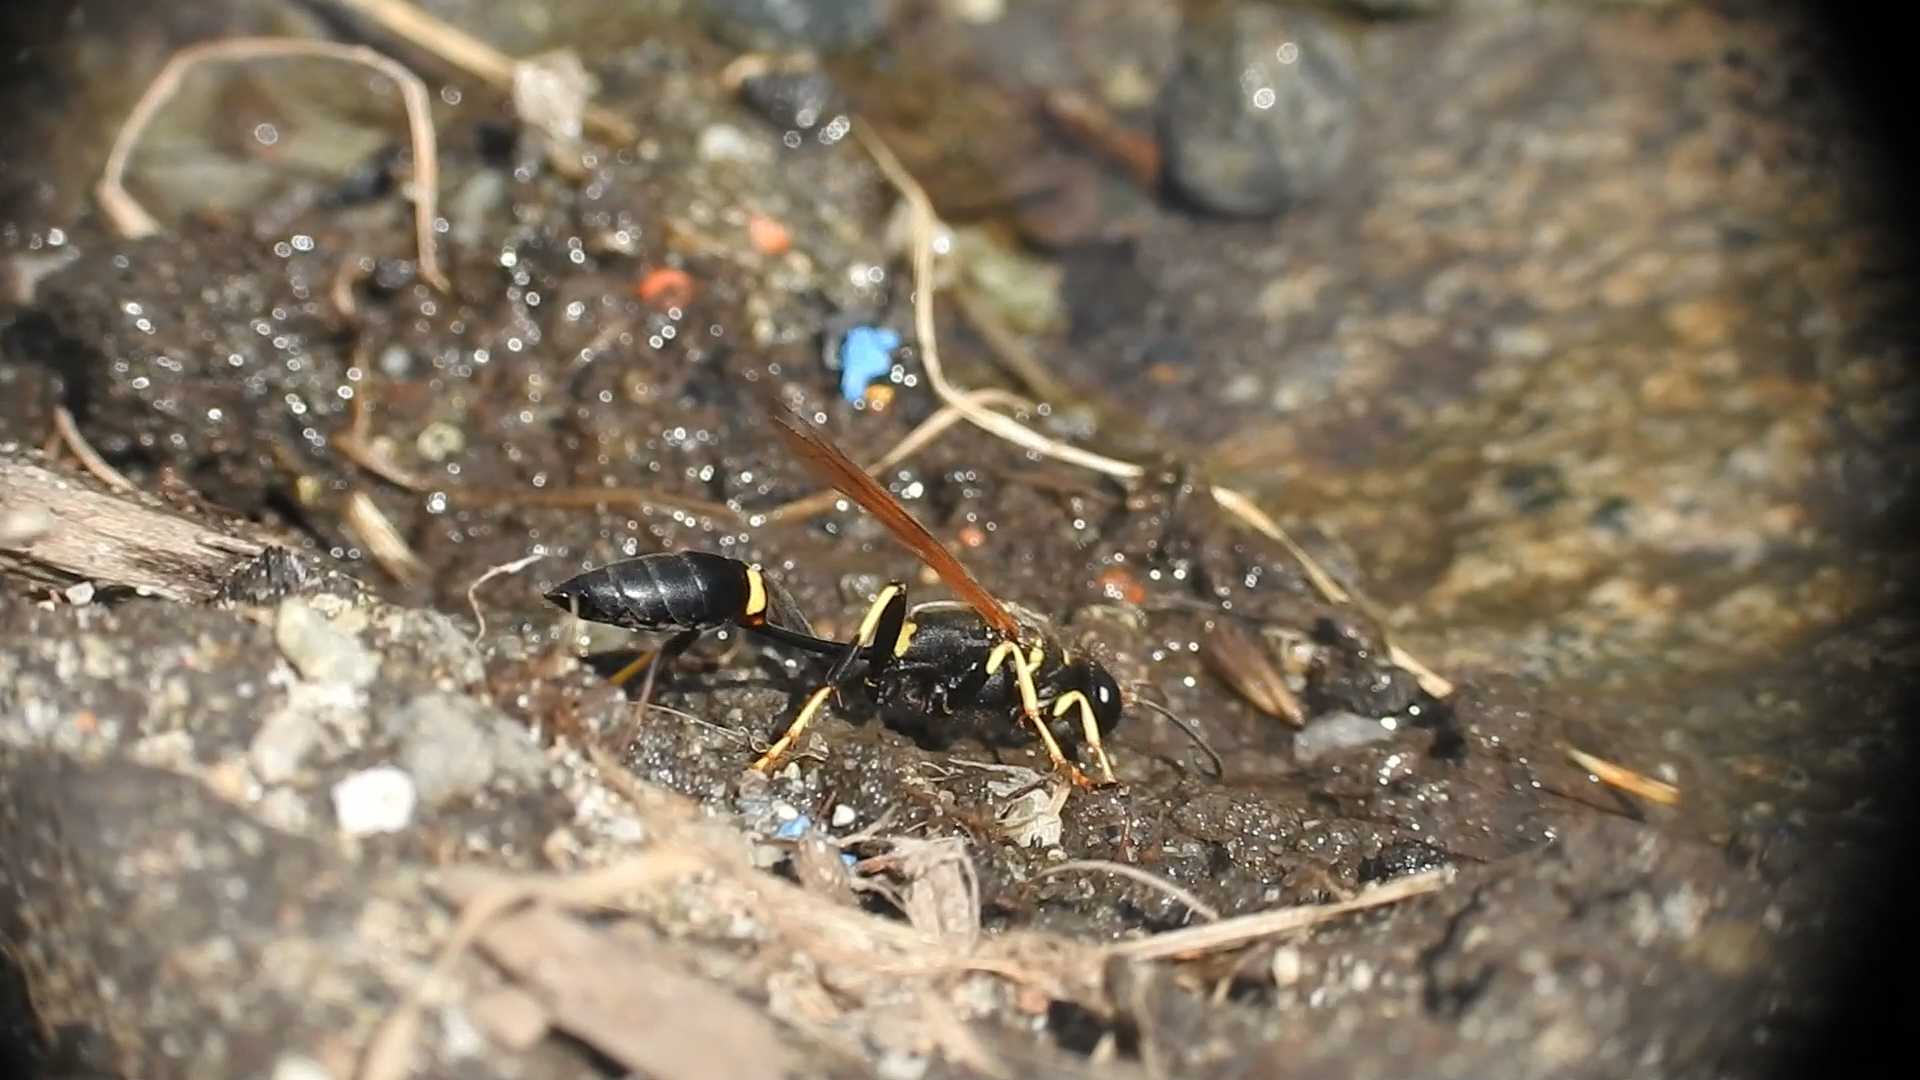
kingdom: Animalia
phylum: Arthropoda
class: Insecta
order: Hymenoptera
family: Sphecidae
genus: Sceliphron
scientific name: Sceliphron caementarium
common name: Mud dauber
